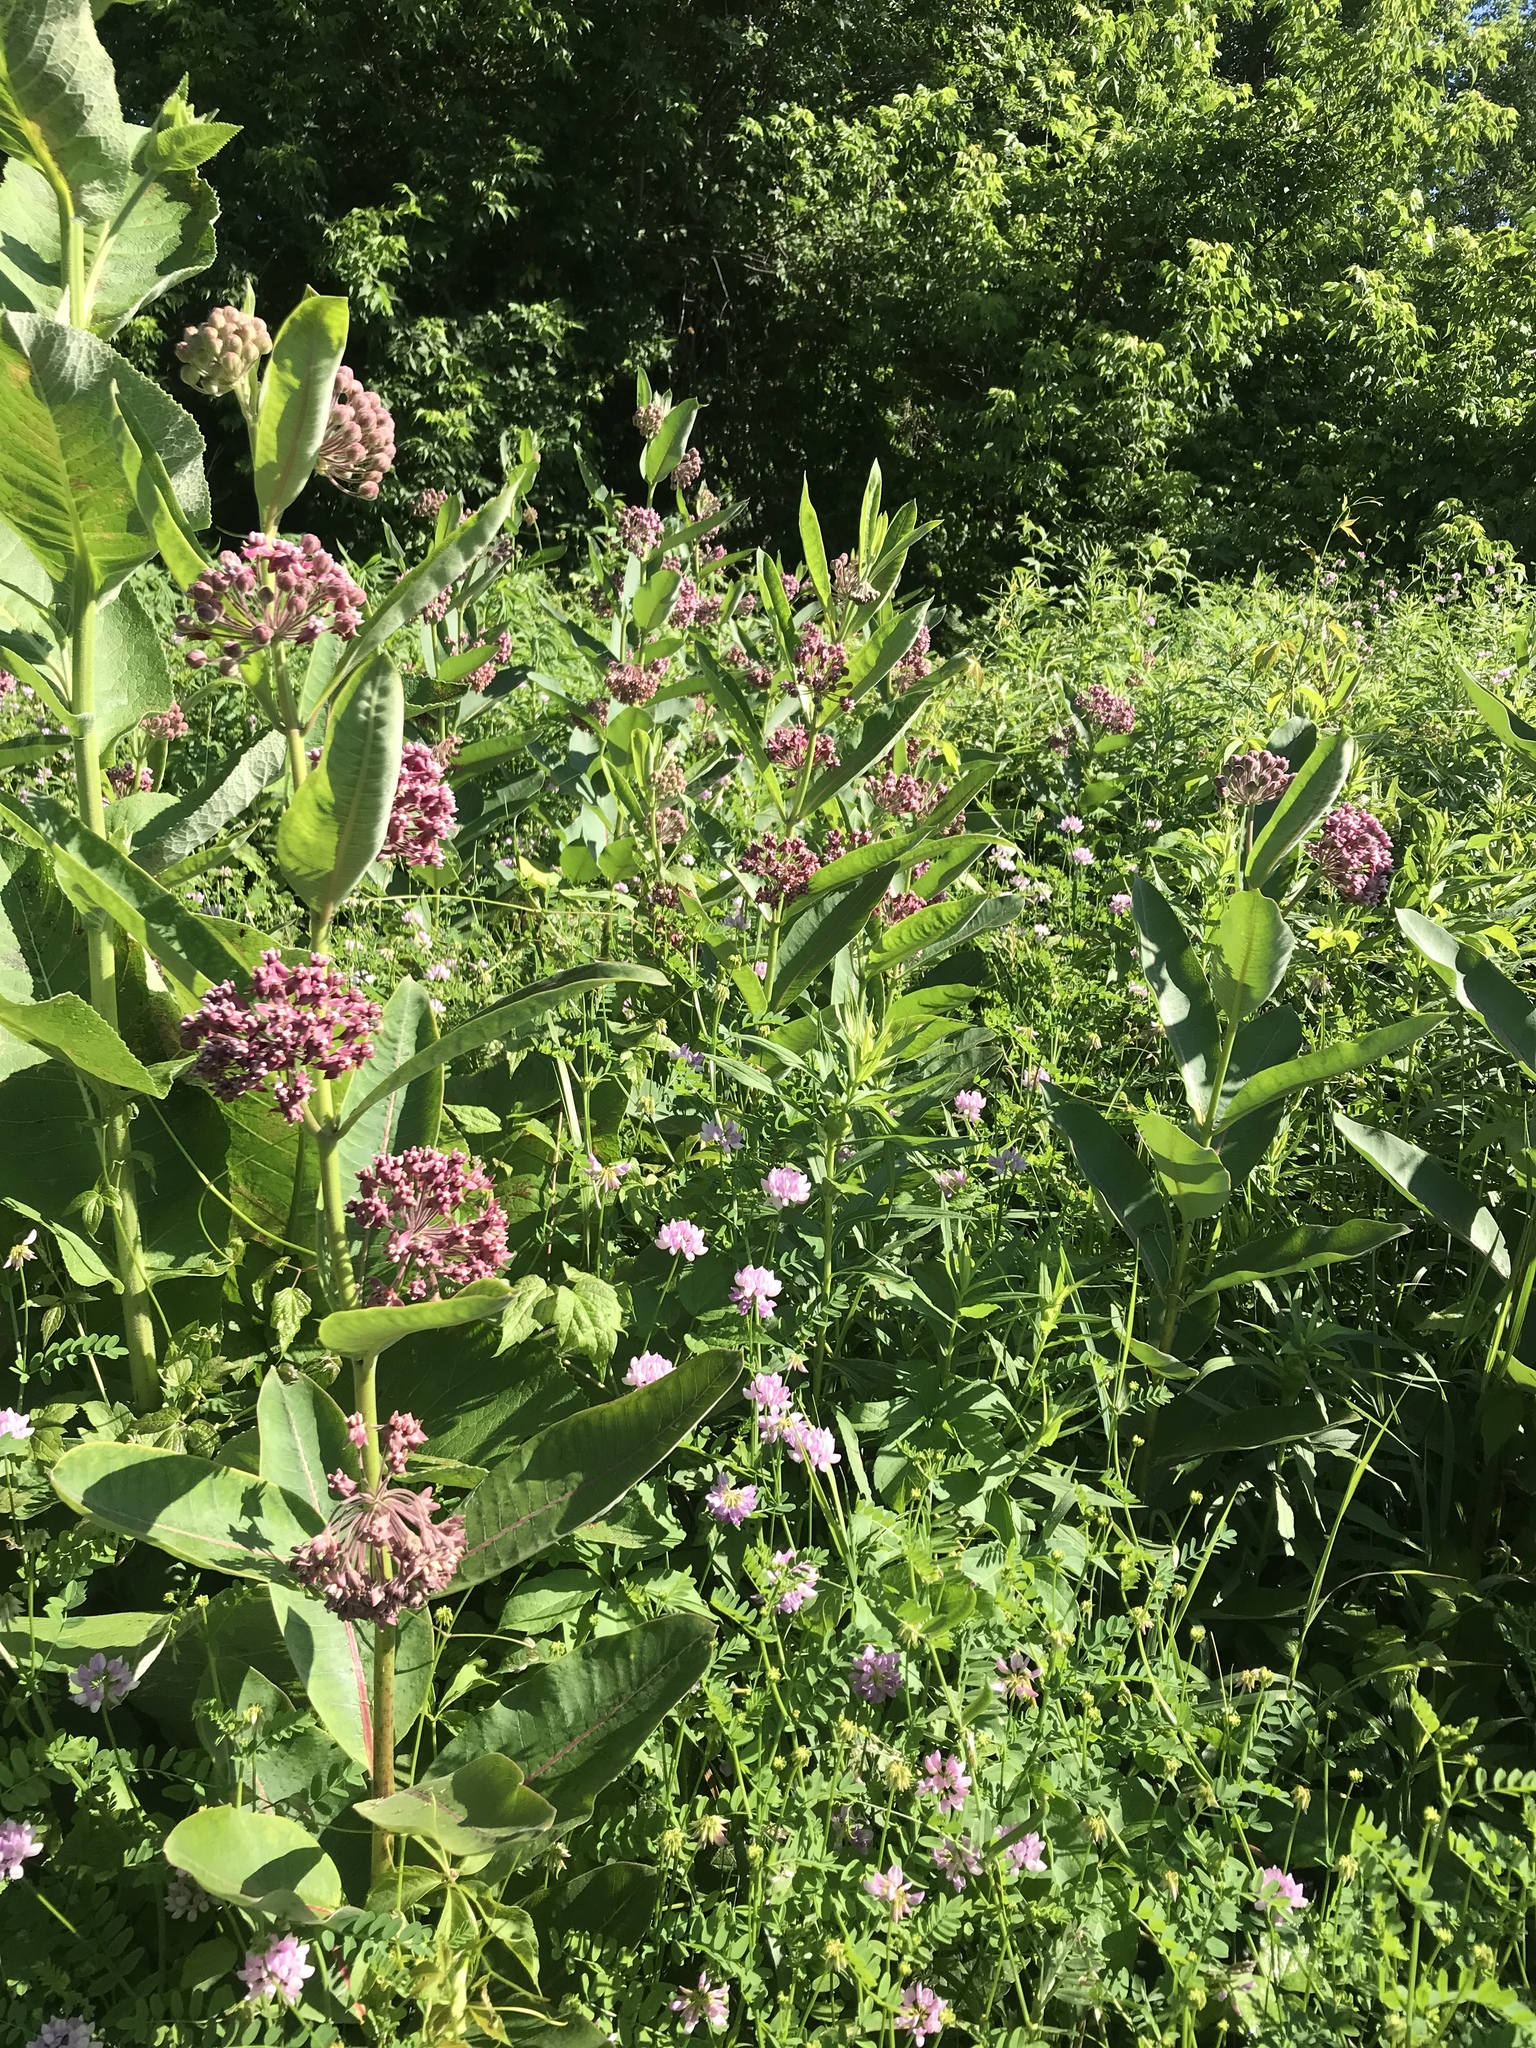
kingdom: Plantae
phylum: Tracheophyta
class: Magnoliopsida
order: Gentianales
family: Apocynaceae
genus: Asclepias
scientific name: Asclepias syriaca
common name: Common milkweed
